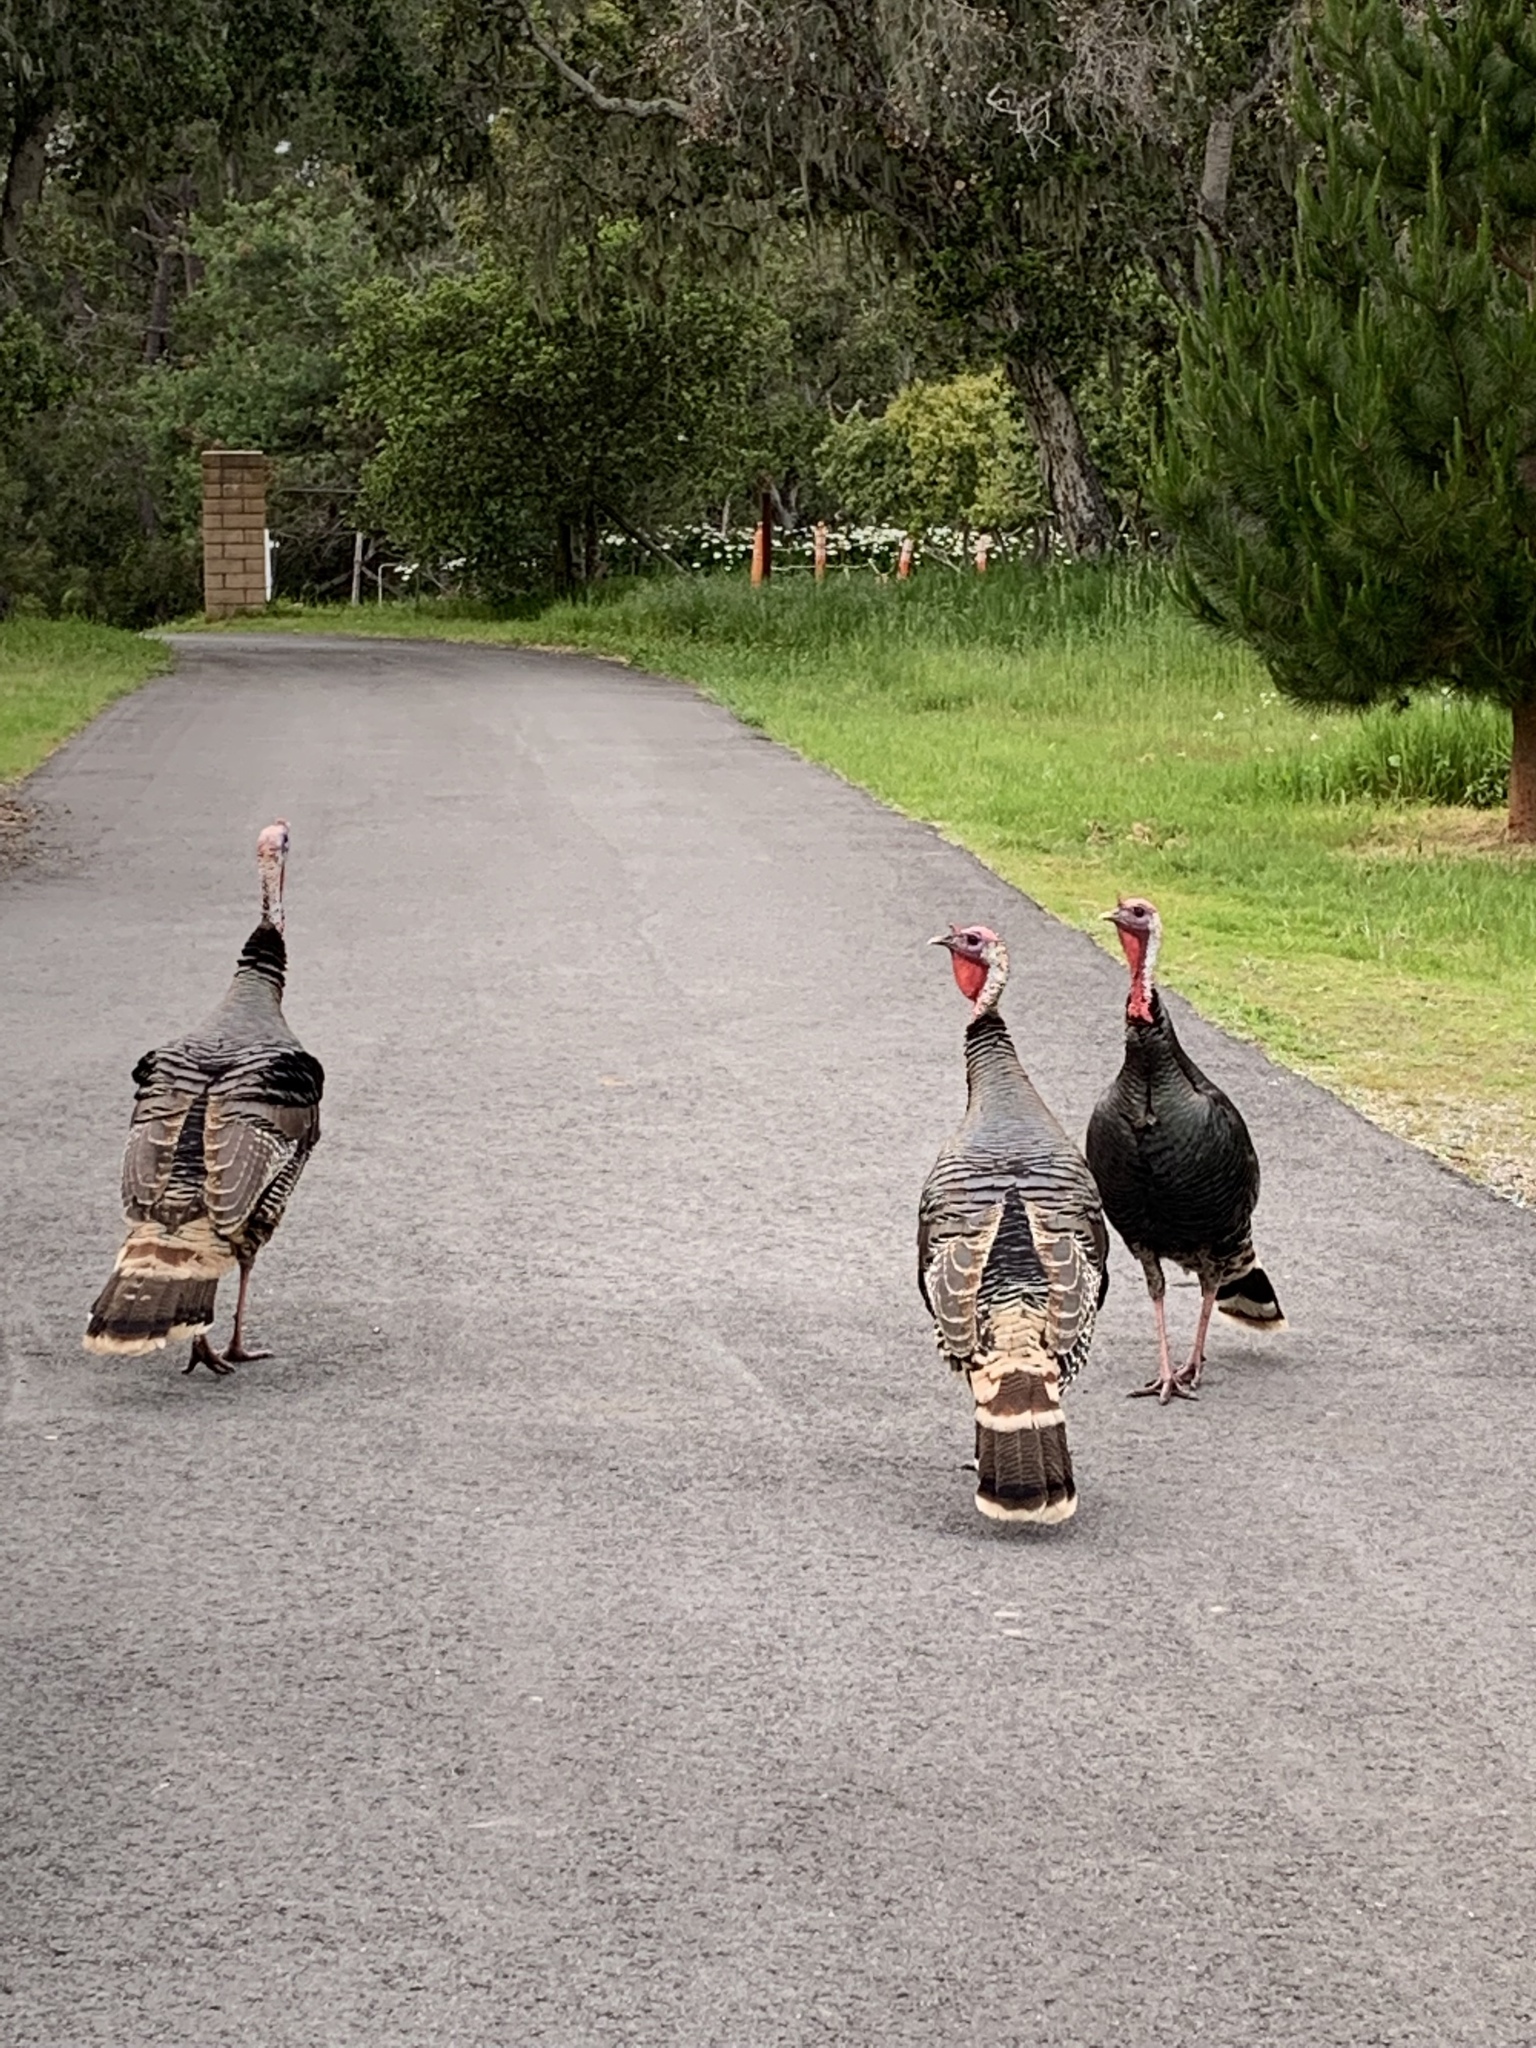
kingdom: Animalia
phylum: Chordata
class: Aves
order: Galliformes
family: Phasianidae
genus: Meleagris
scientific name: Meleagris gallopavo
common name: Wild turkey
